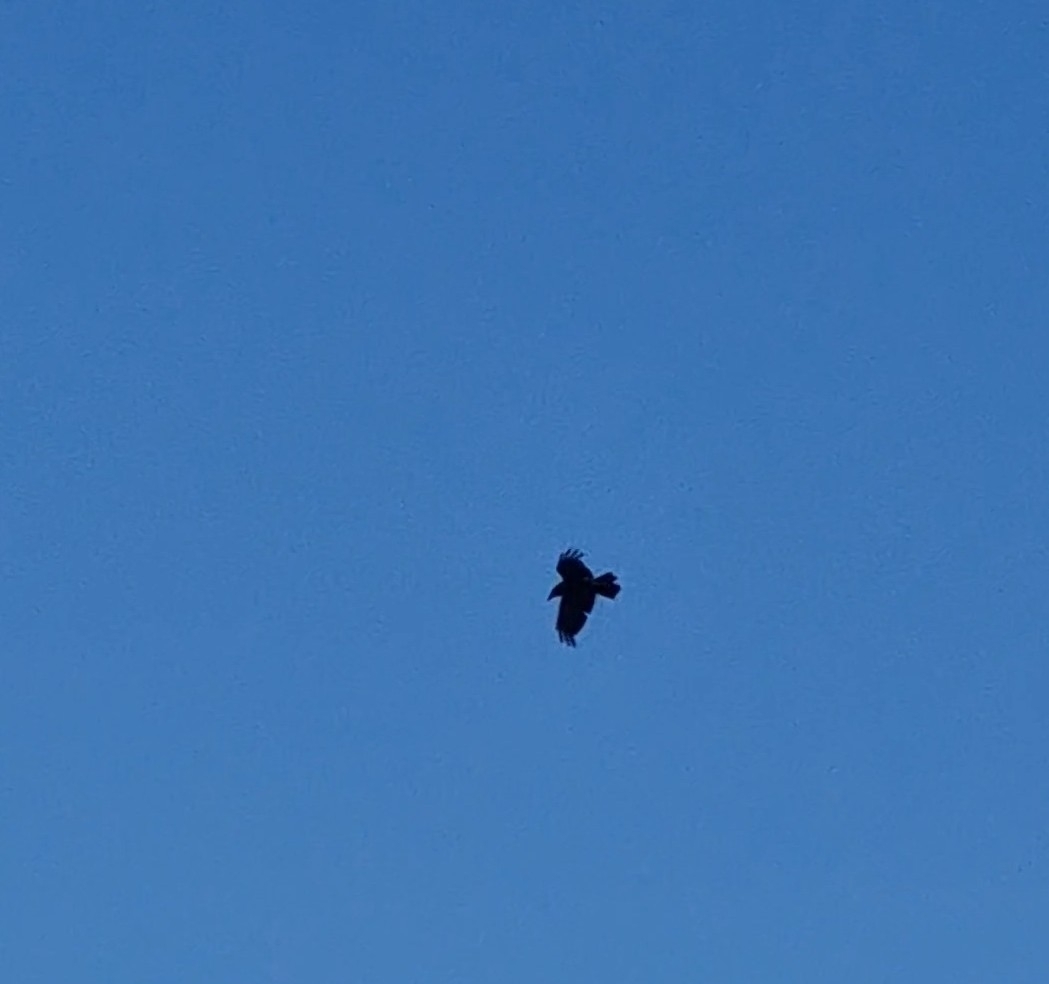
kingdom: Animalia
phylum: Chordata
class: Aves
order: Passeriformes
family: Corvidae
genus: Corvus
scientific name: Corvus corax
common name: Common raven
